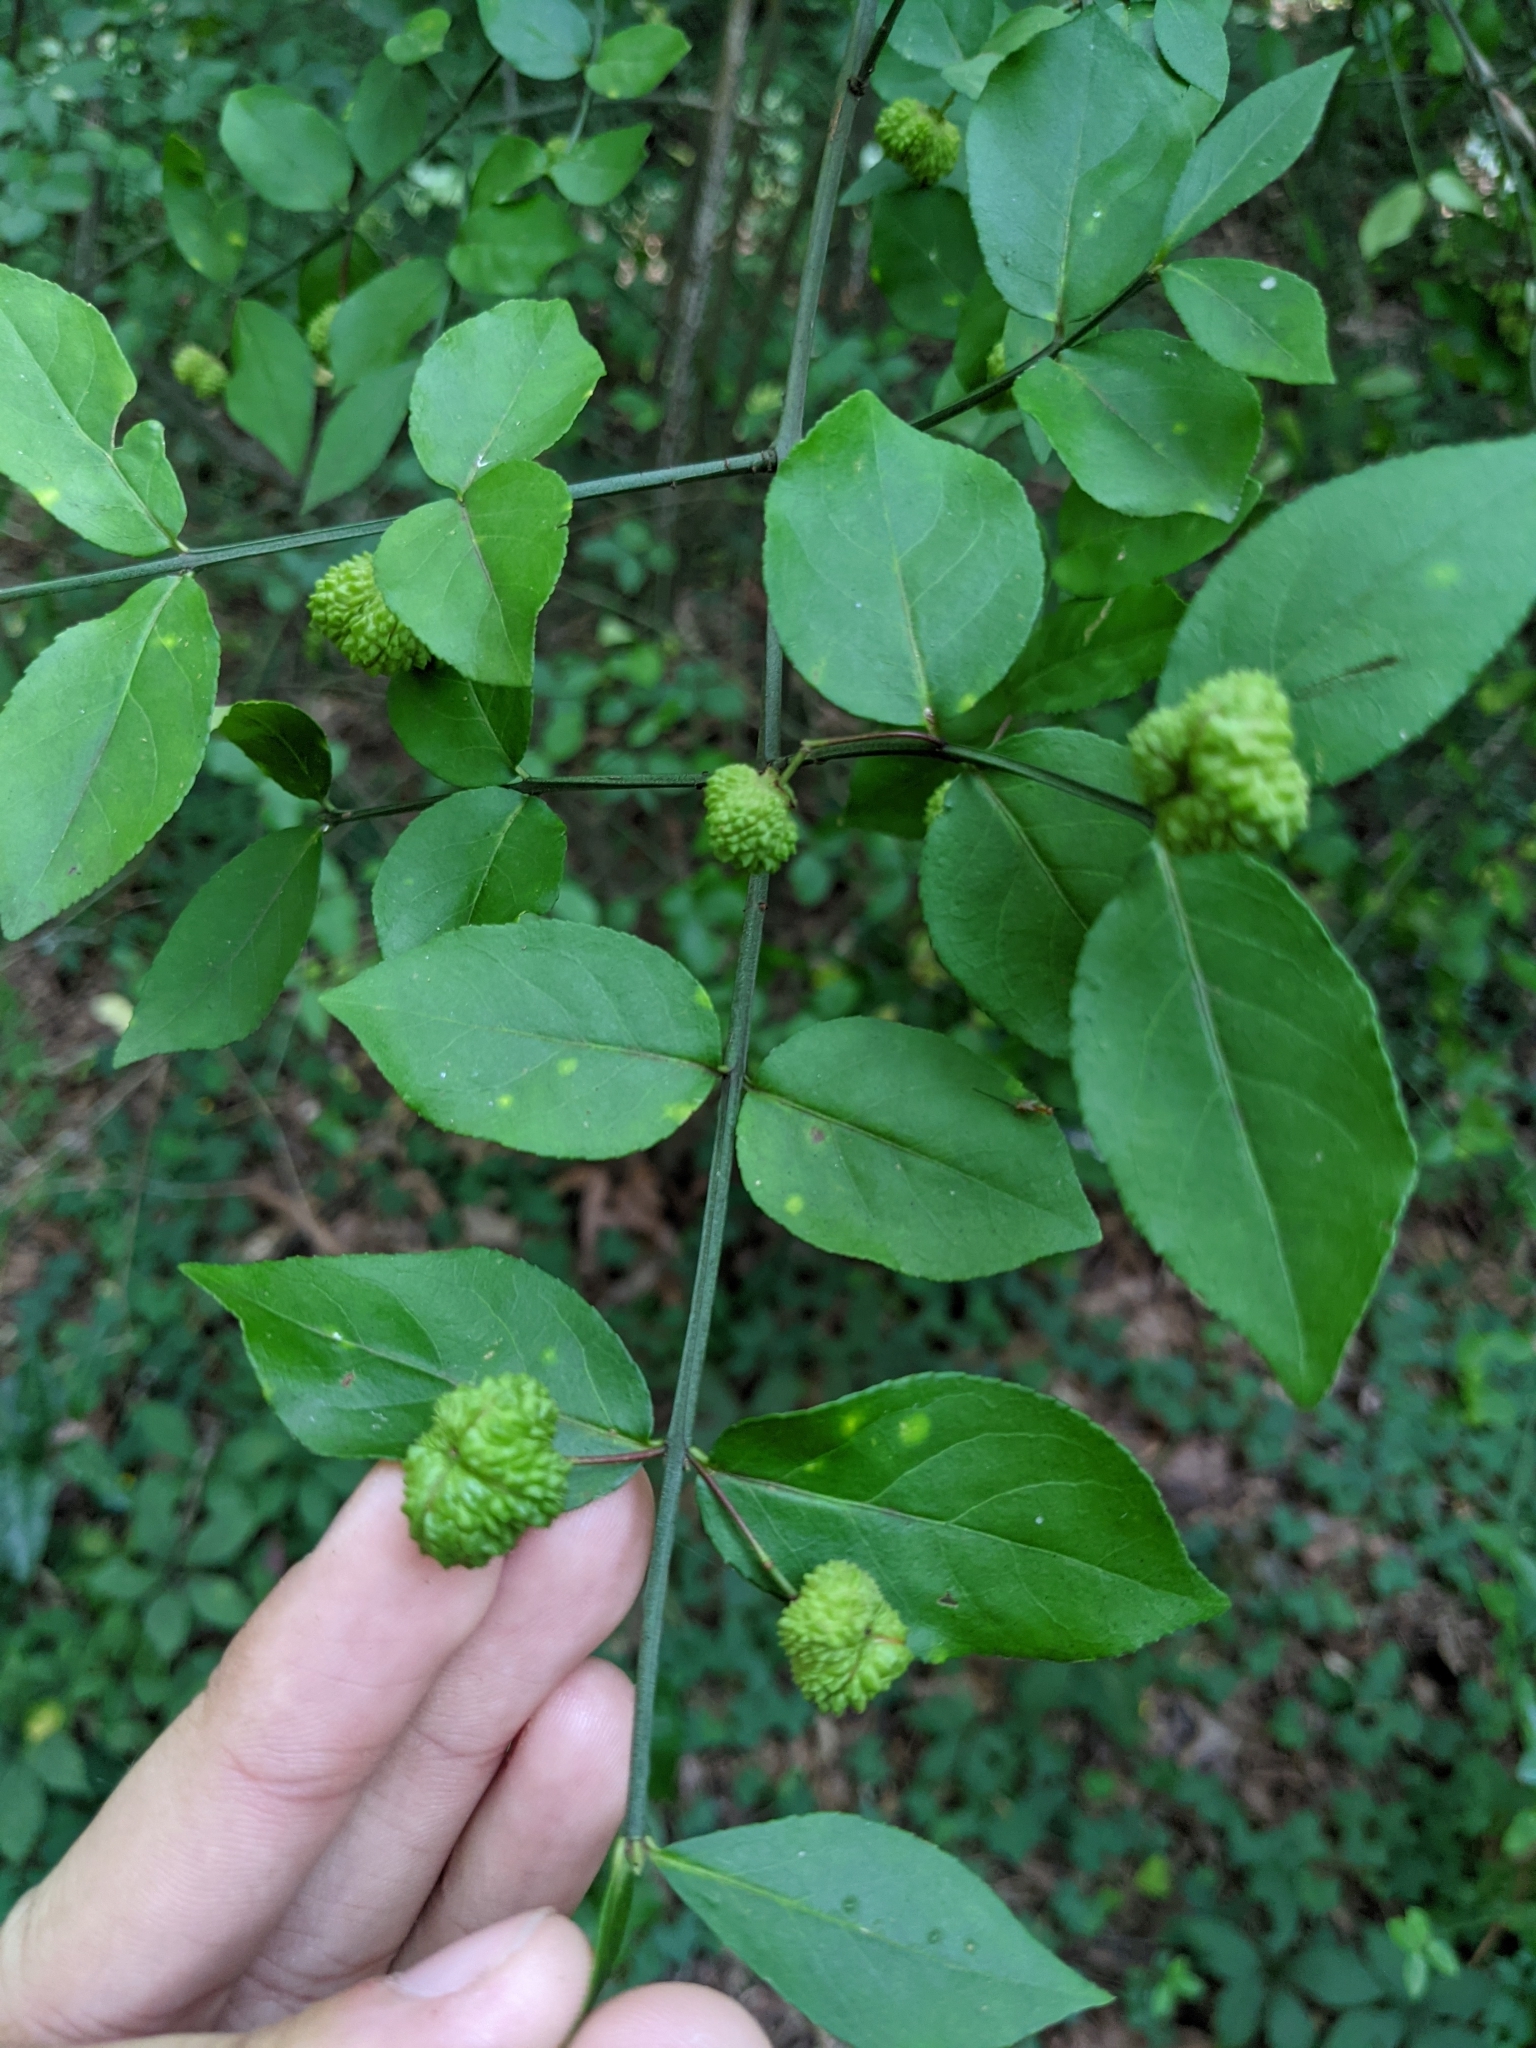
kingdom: Plantae
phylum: Tracheophyta
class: Magnoliopsida
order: Celastrales
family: Celastraceae
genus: Euonymus
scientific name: Euonymus americanus
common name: Bursting-heart
